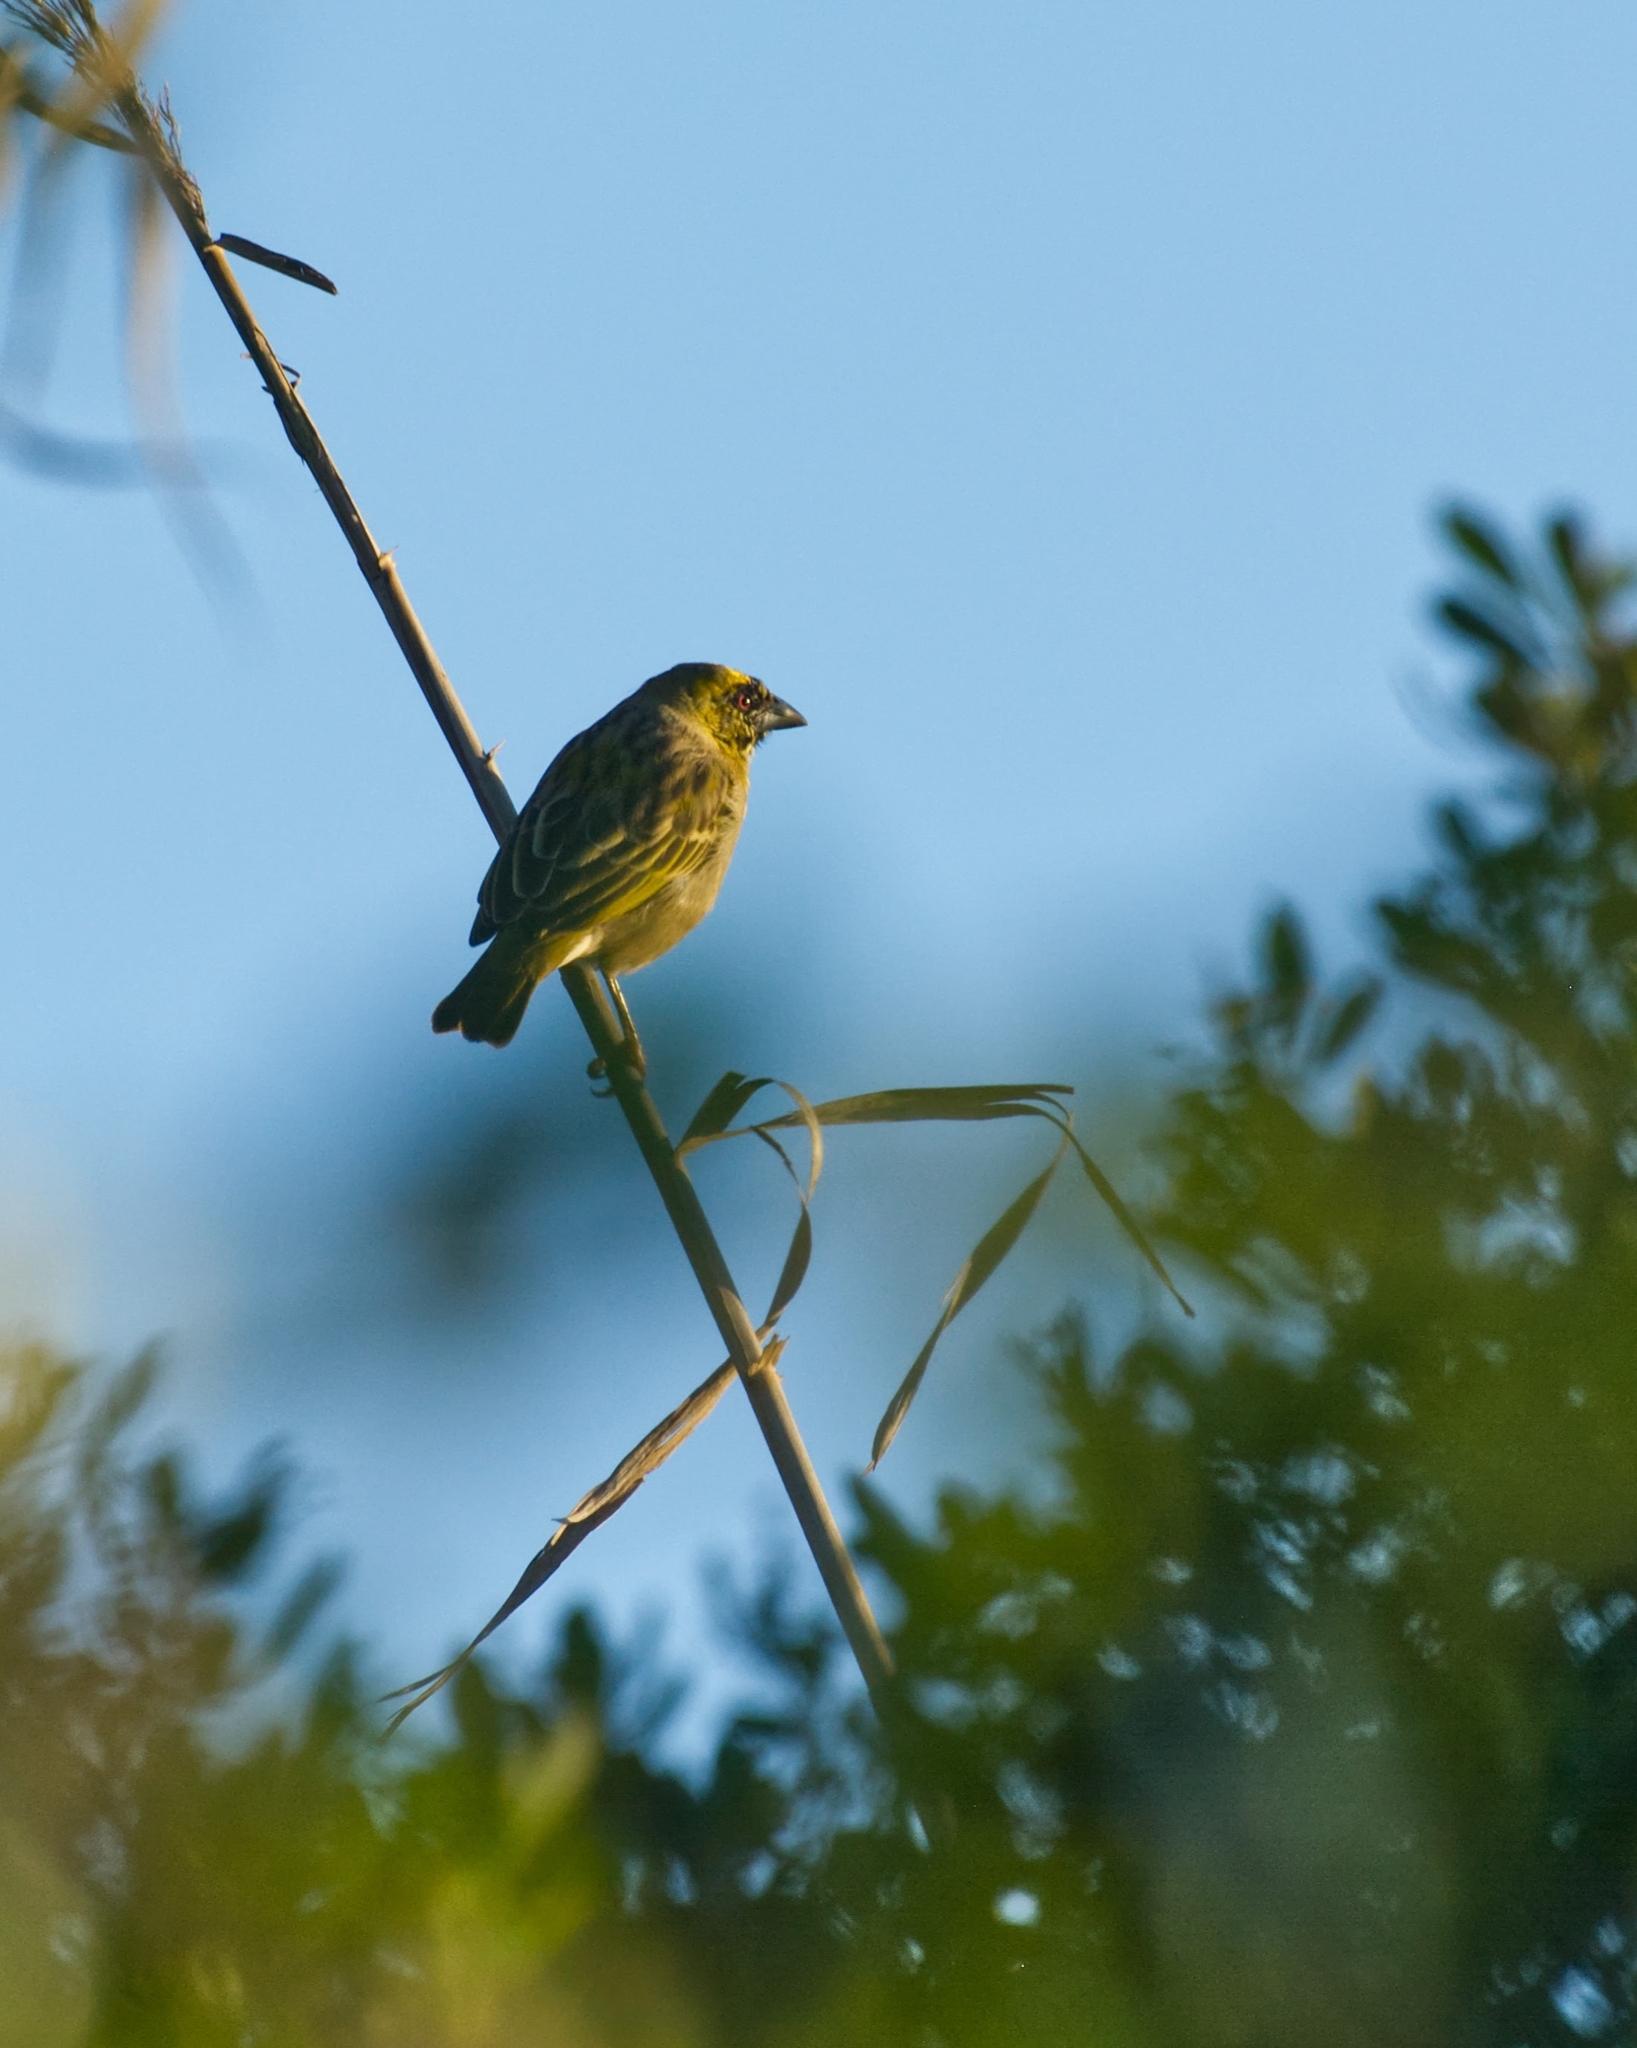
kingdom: Animalia
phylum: Chordata
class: Aves
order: Passeriformes
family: Ploceidae
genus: Ploceus
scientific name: Ploceus velatus
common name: Southern masked weaver
